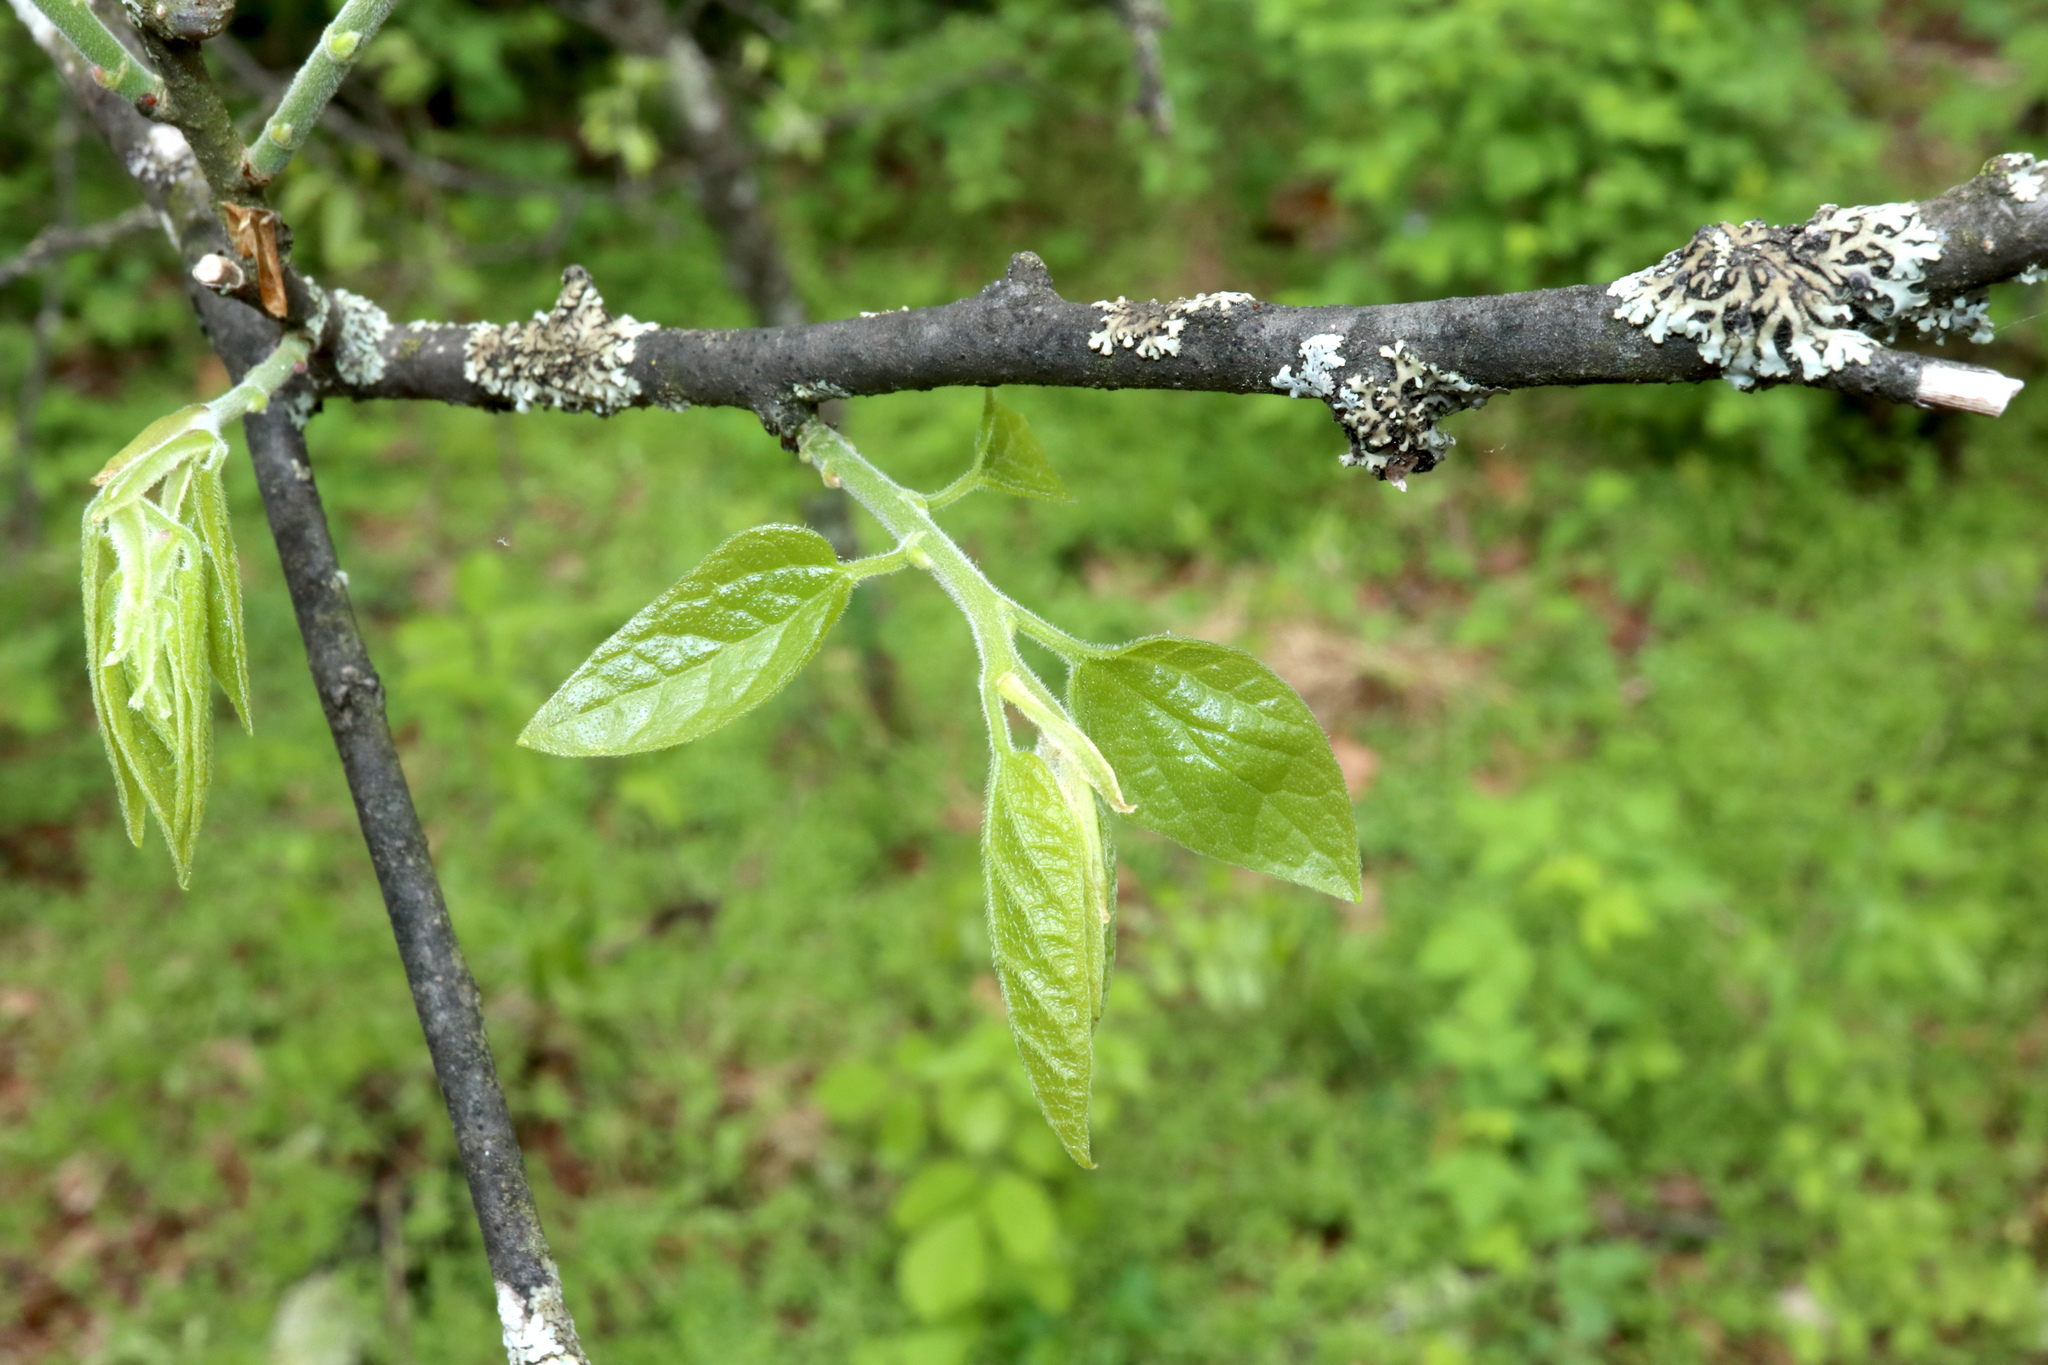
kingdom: Plantae
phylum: Tracheophyta
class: Magnoliopsida
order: Rosales
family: Cannabaceae
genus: Celtis
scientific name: Celtis tenuifolia
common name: Georgia hackberry
